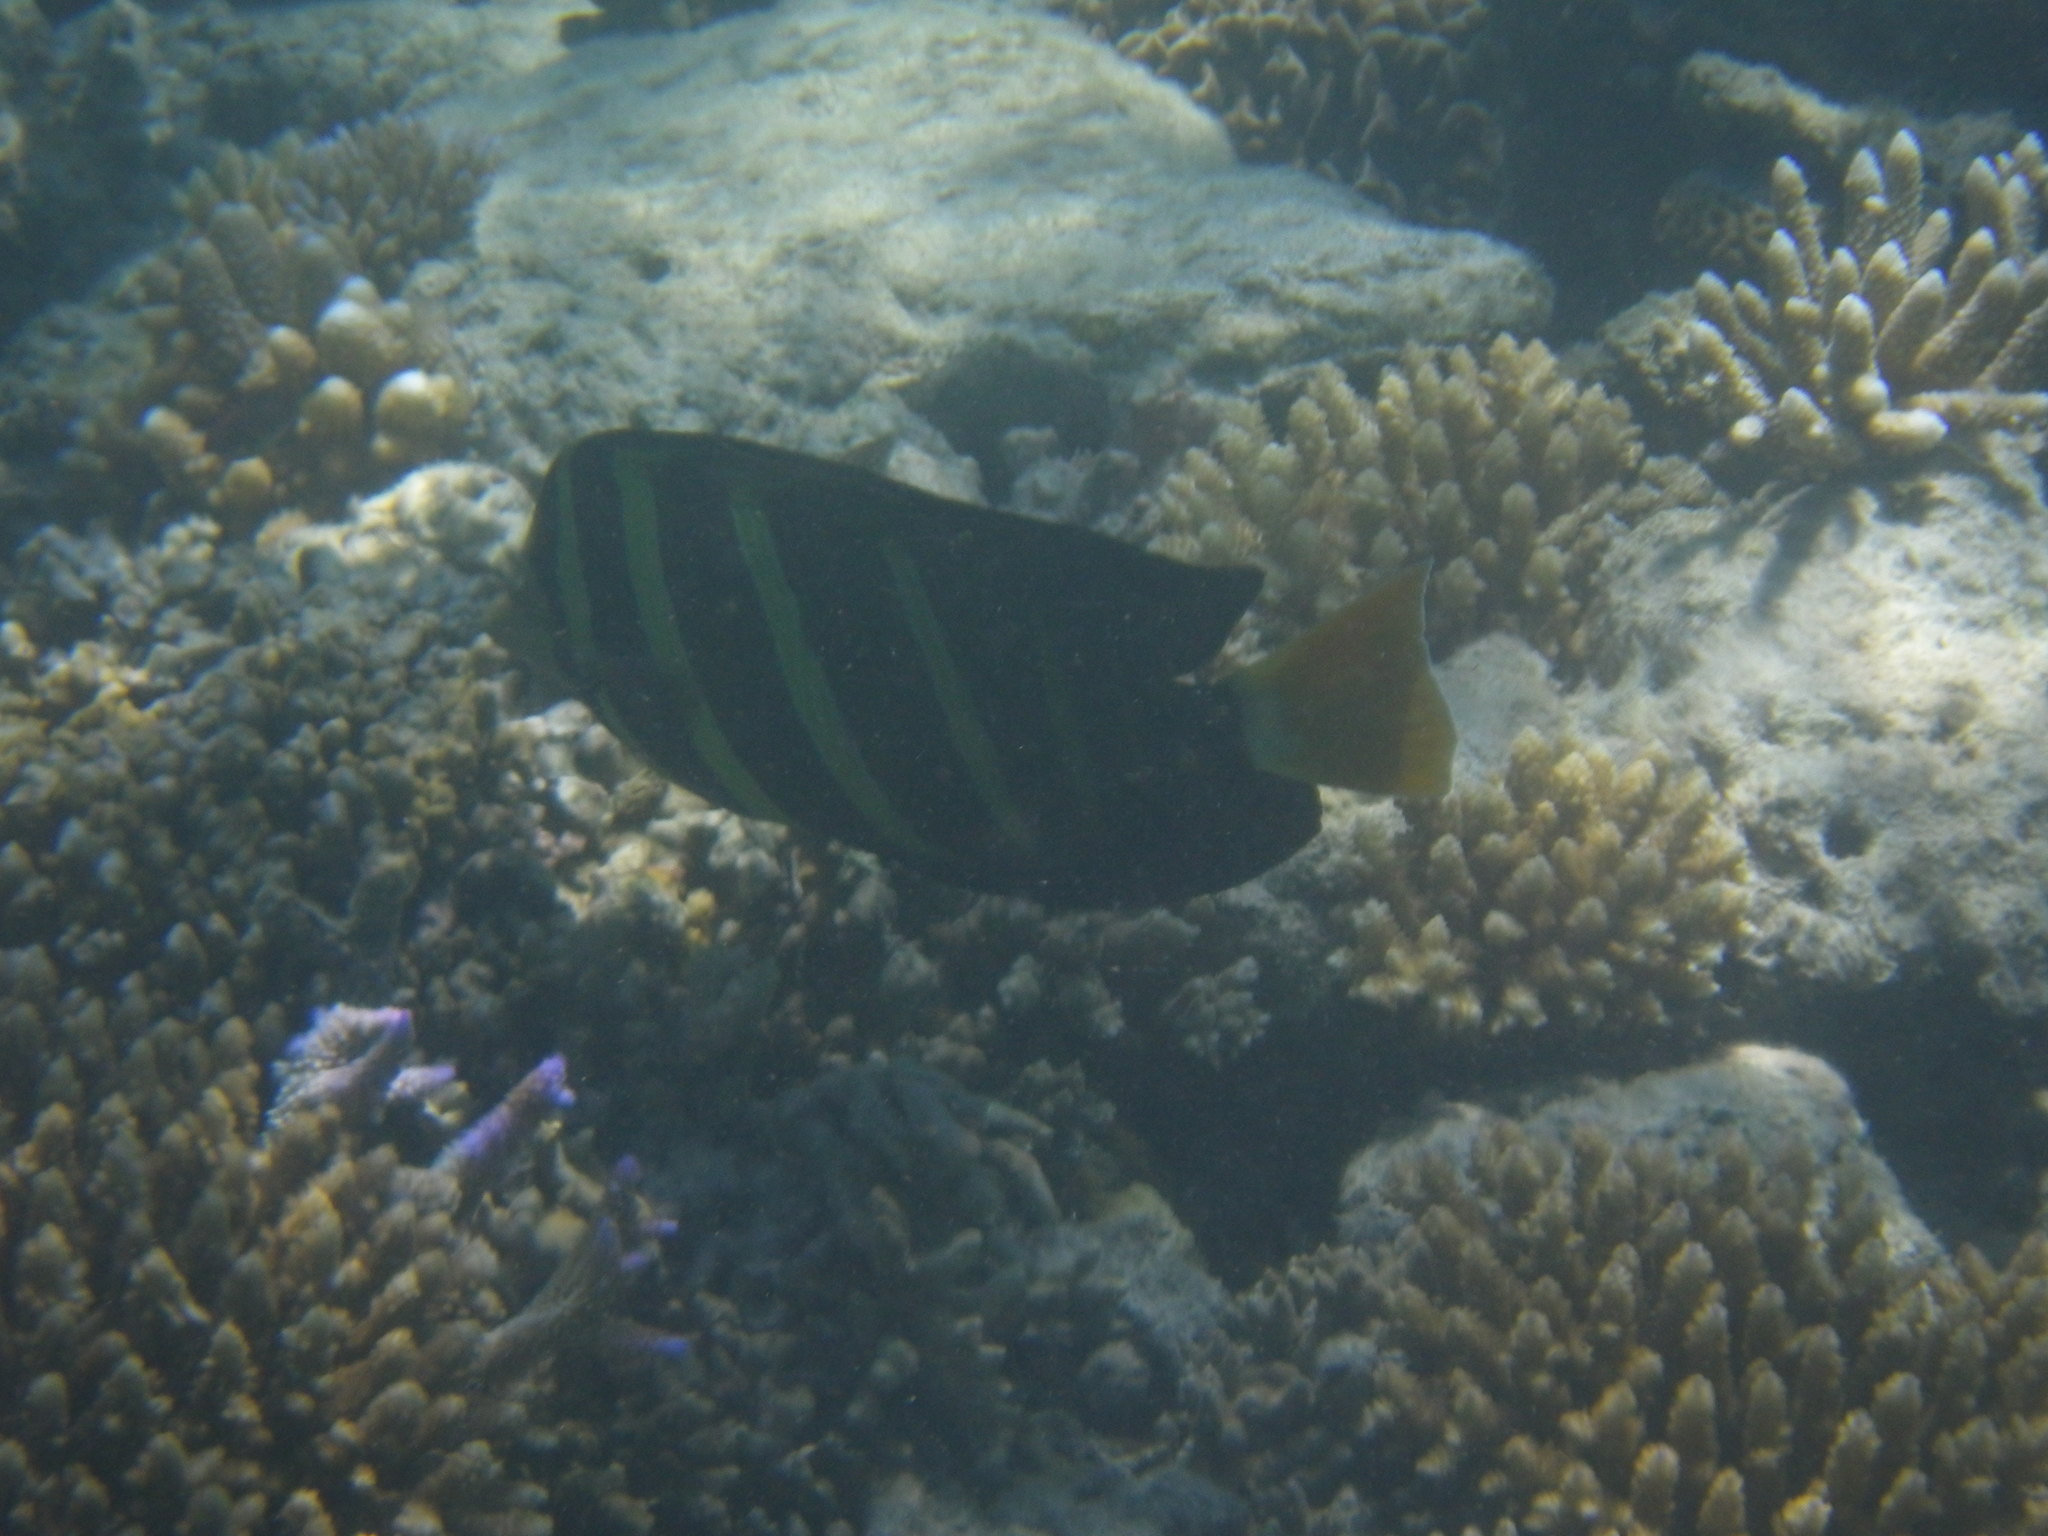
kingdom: Animalia
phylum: Chordata
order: Perciformes
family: Acanthuridae
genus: Zebrasoma
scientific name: Zebrasoma veliferum
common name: Sailfin surgeonfish
